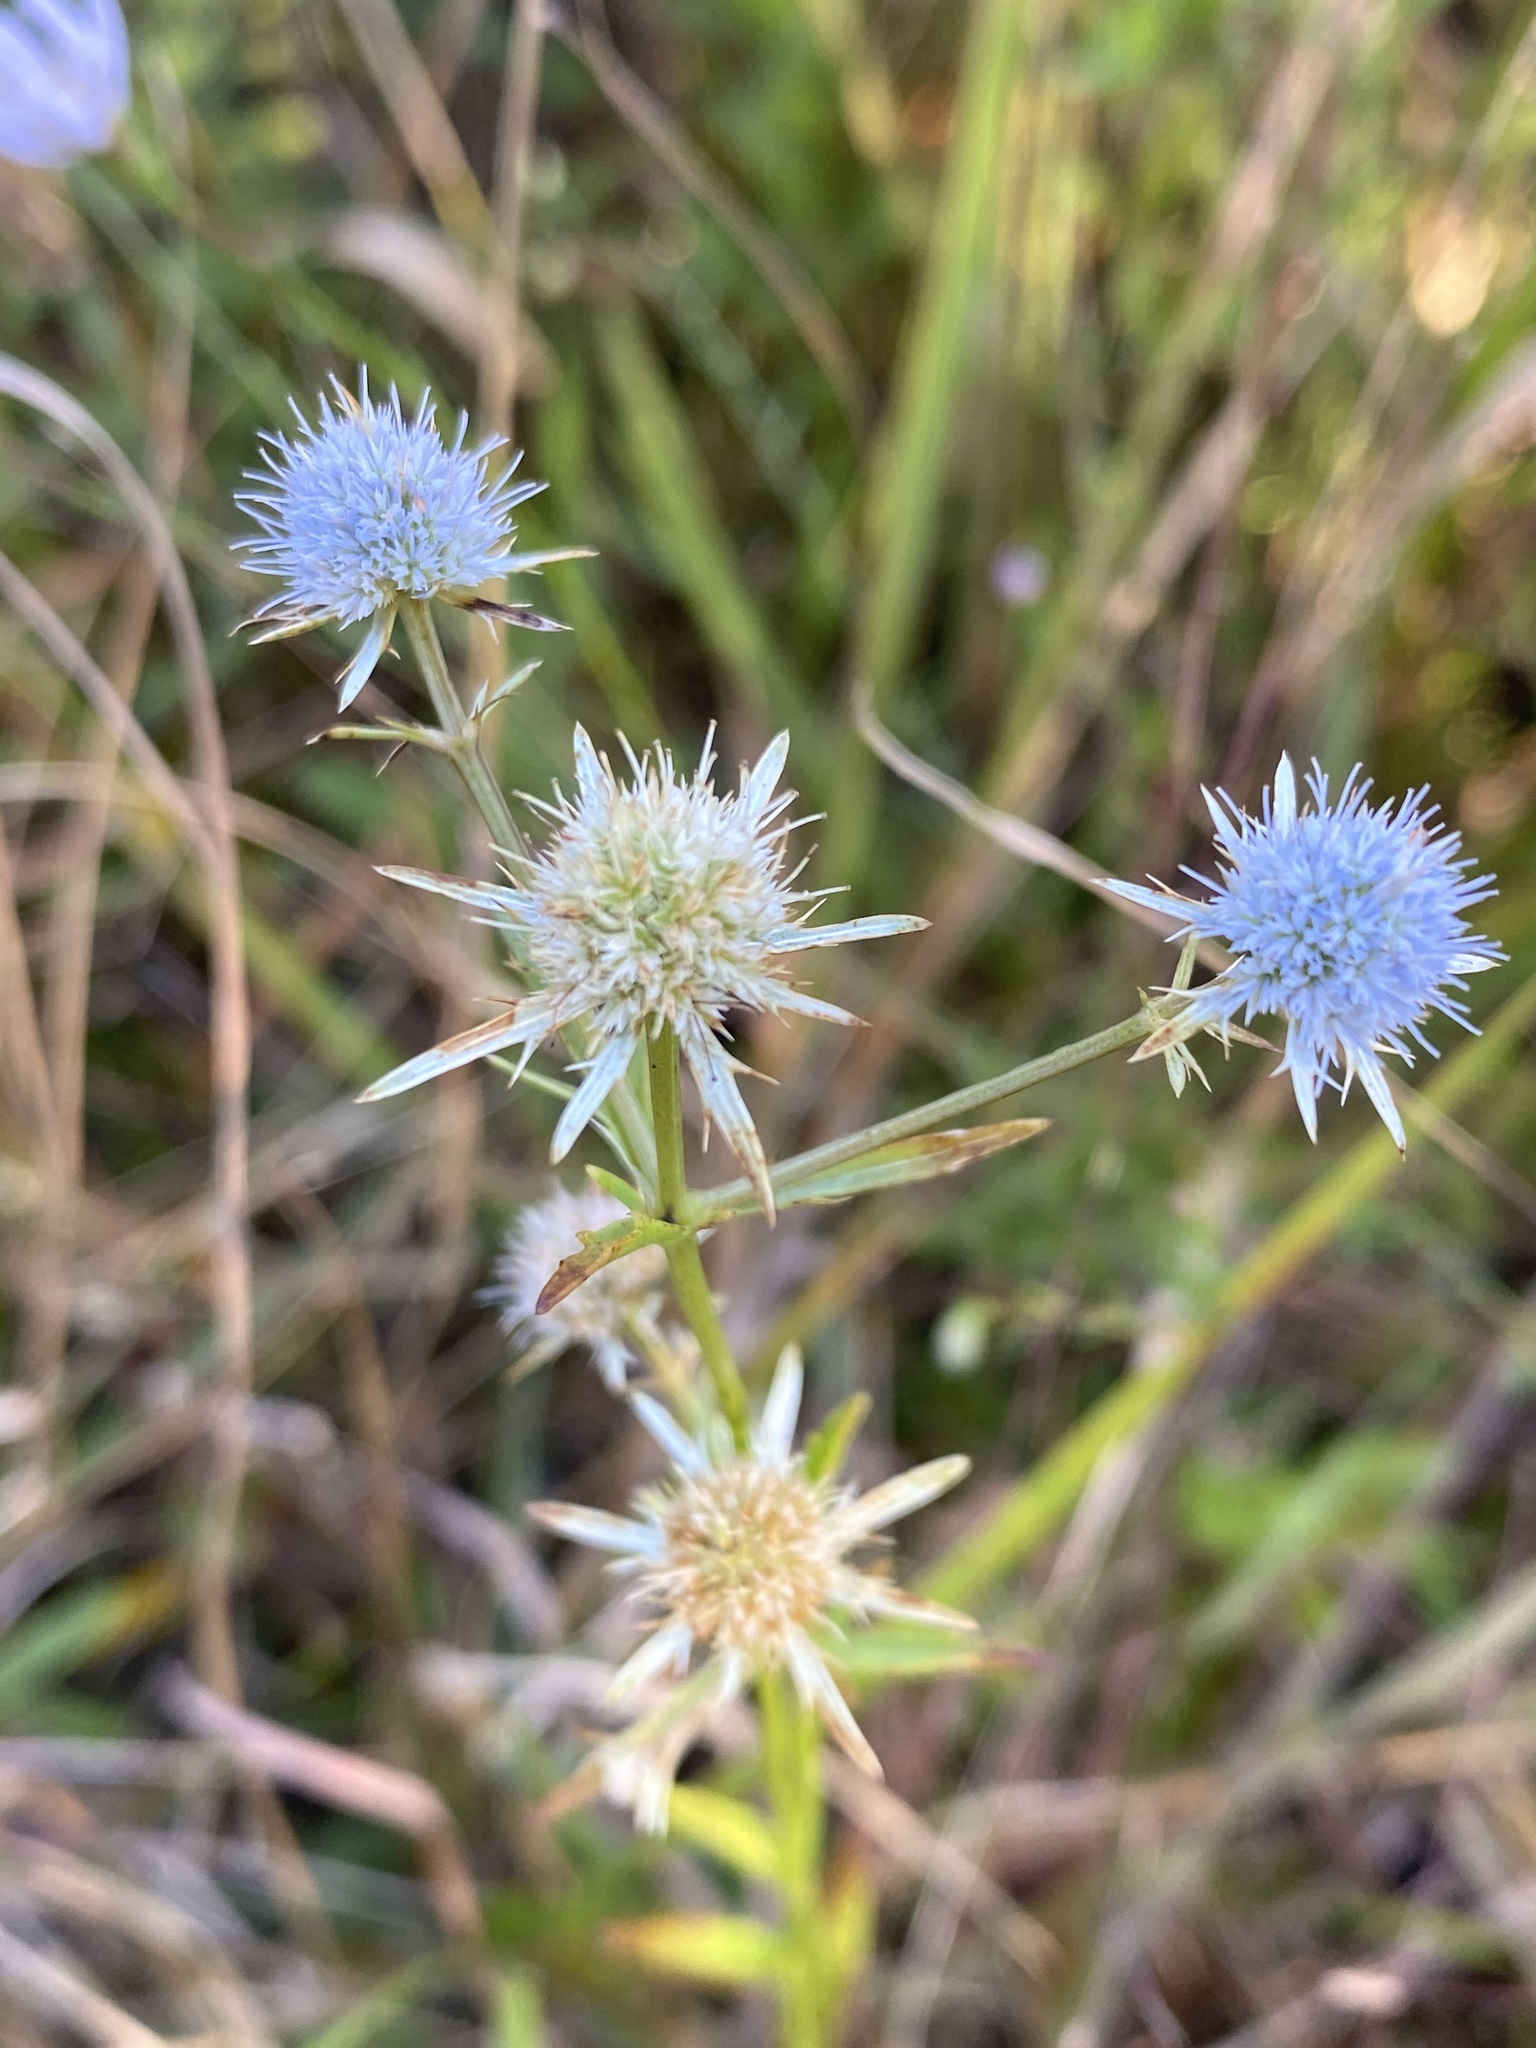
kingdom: Plantae
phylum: Tracheophyta
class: Magnoliopsida
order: Apiales
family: Apiaceae
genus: Eryngium
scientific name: Eryngium integrifolium
